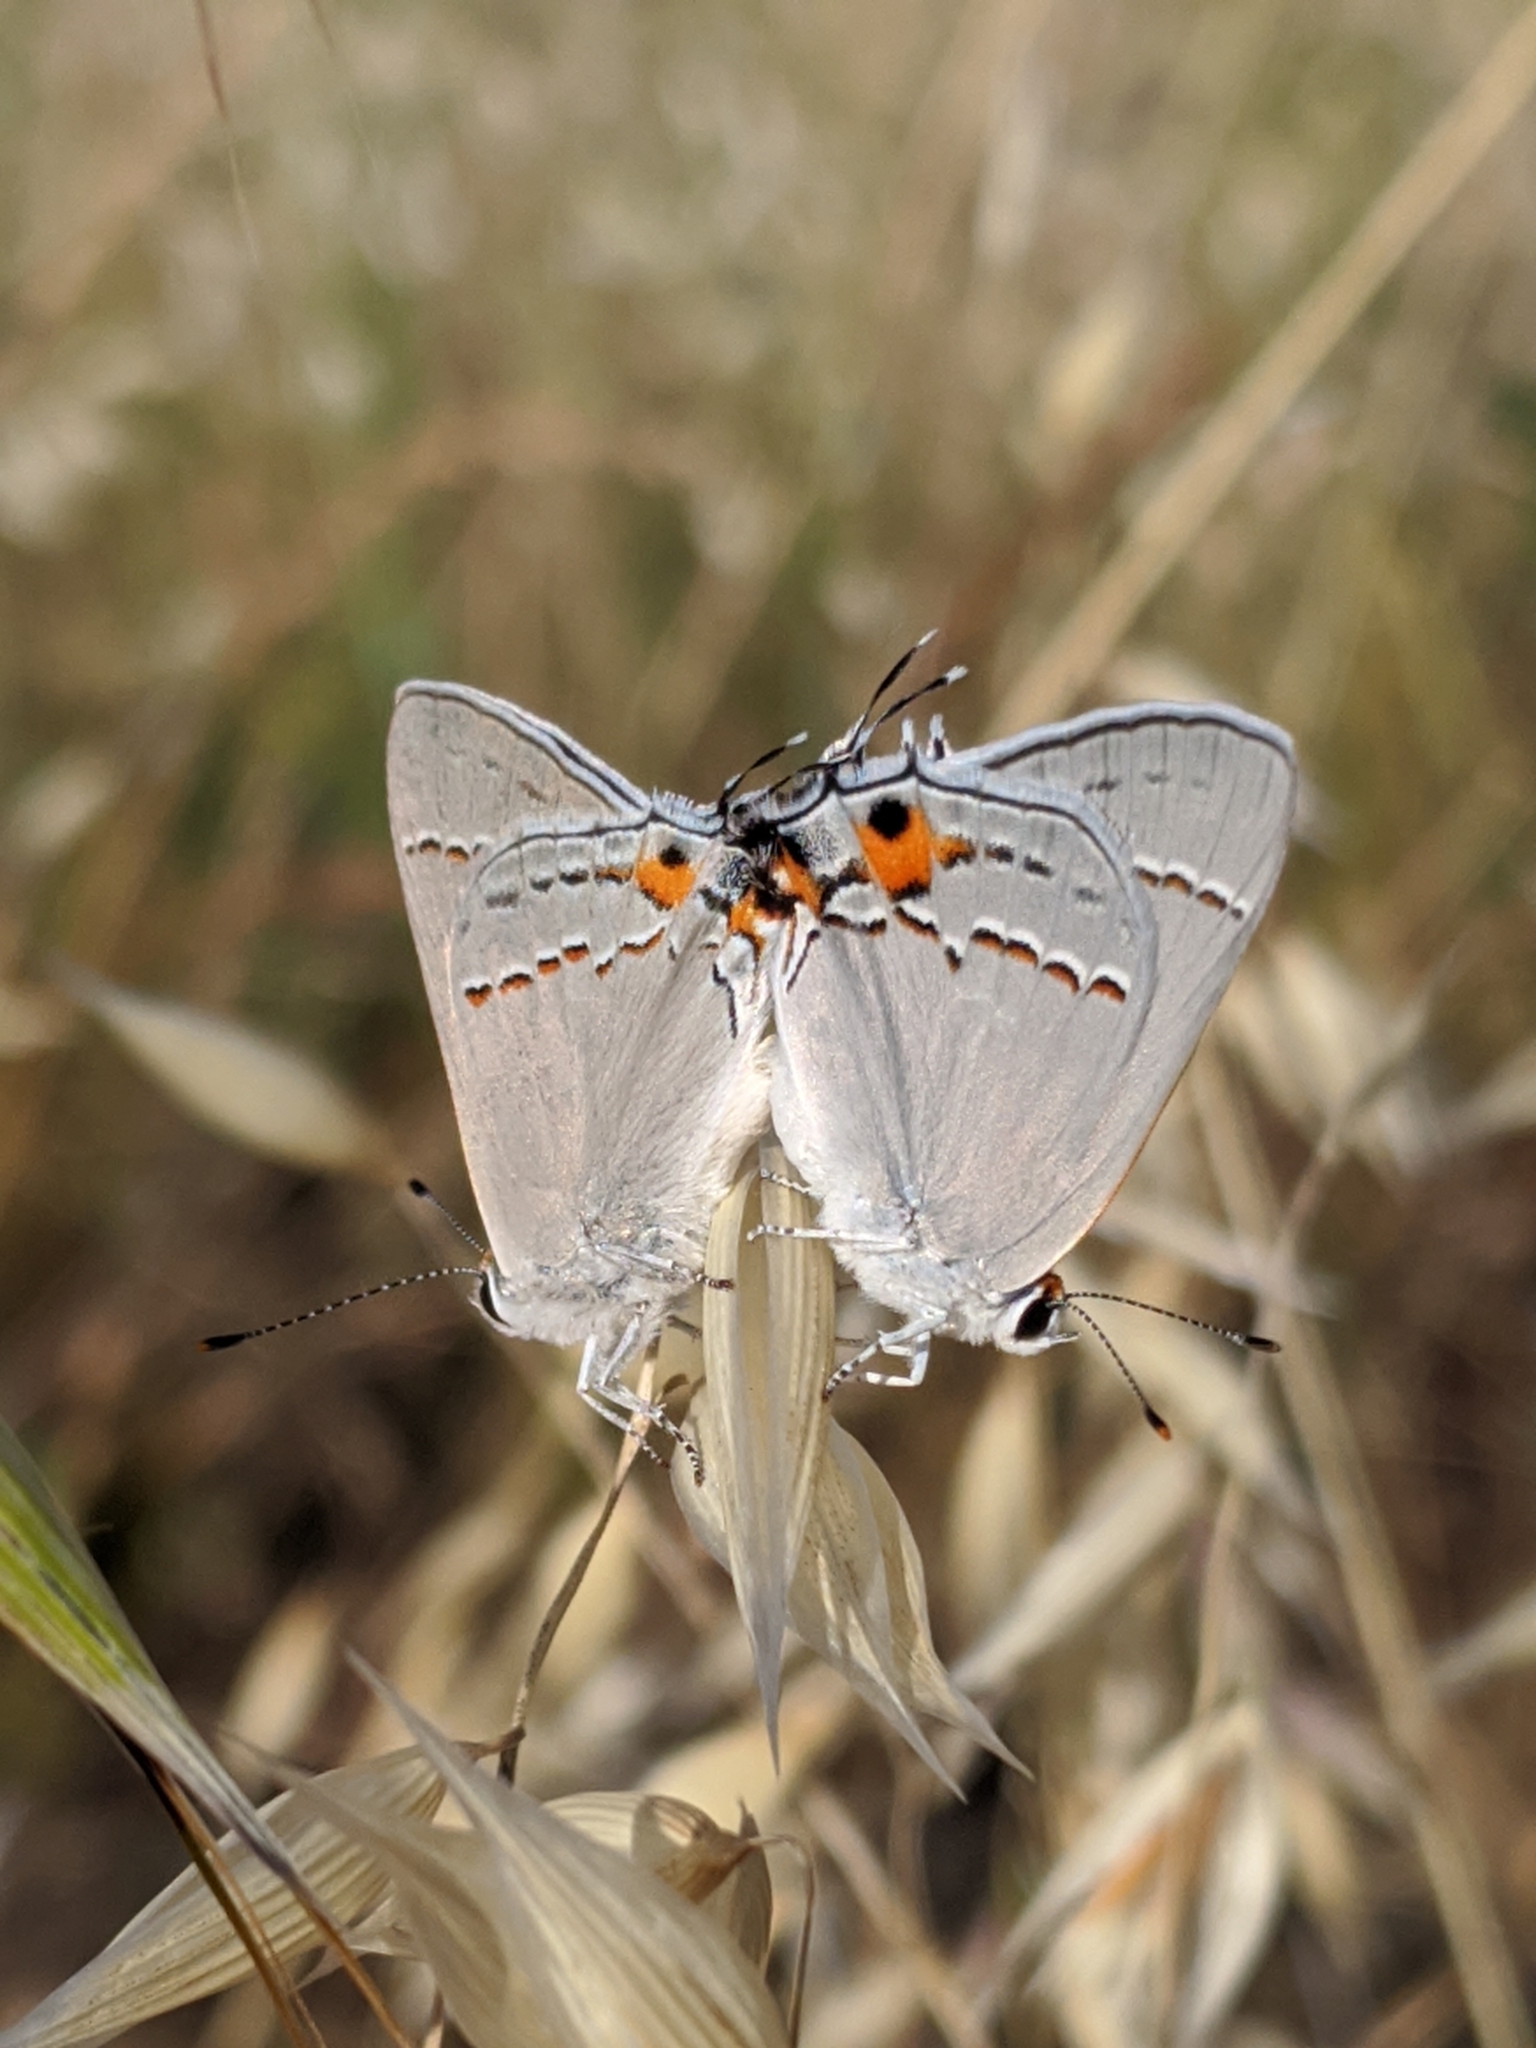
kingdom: Animalia
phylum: Arthropoda
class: Insecta
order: Lepidoptera
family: Lycaenidae
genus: Strymon
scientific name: Strymon melinus
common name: Gray hairstreak
